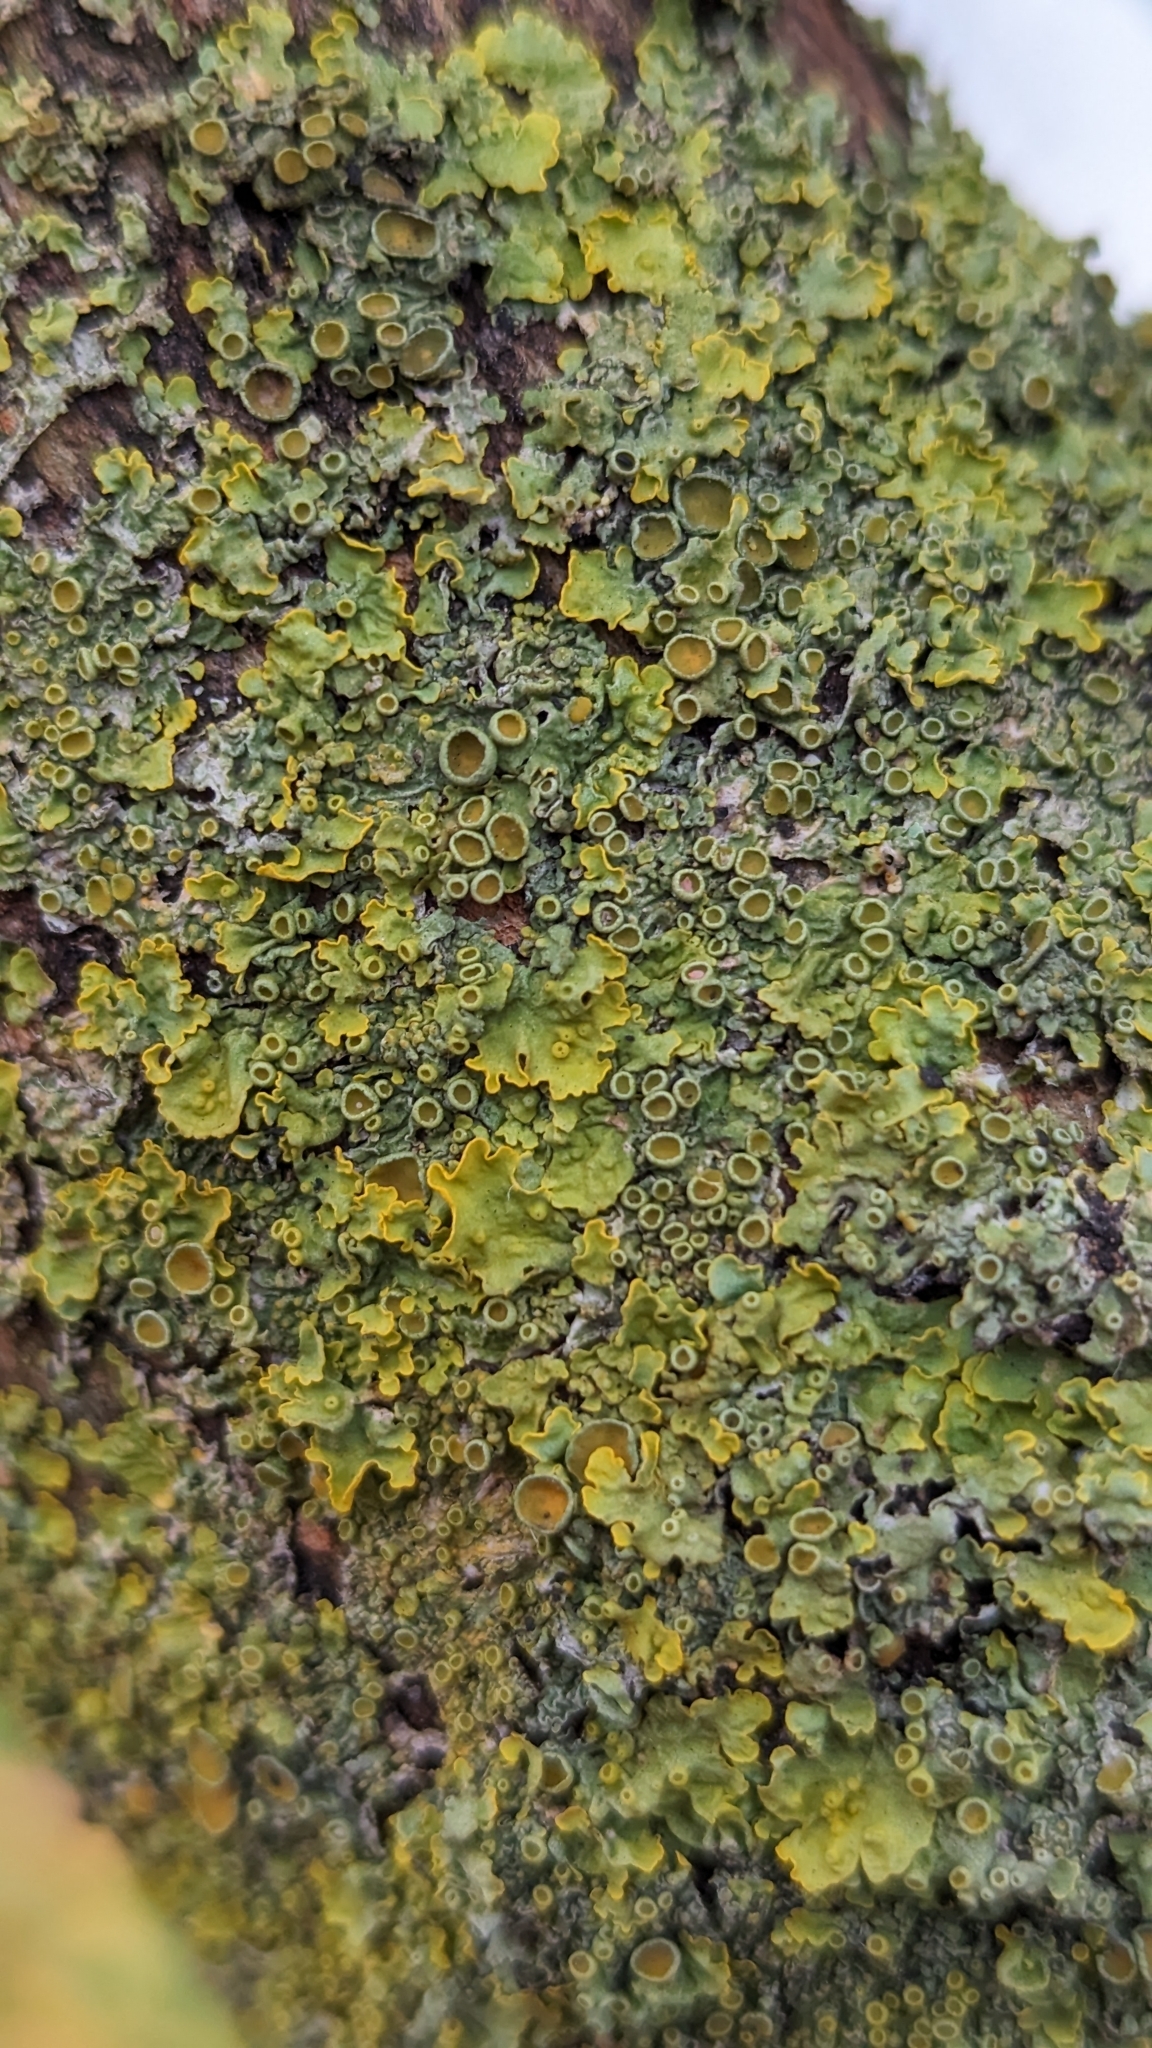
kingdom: Fungi
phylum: Ascomycota
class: Lecanoromycetes
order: Teloschistales
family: Teloschistaceae
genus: Xanthoria
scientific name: Xanthoria parietina
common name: Common orange lichen
